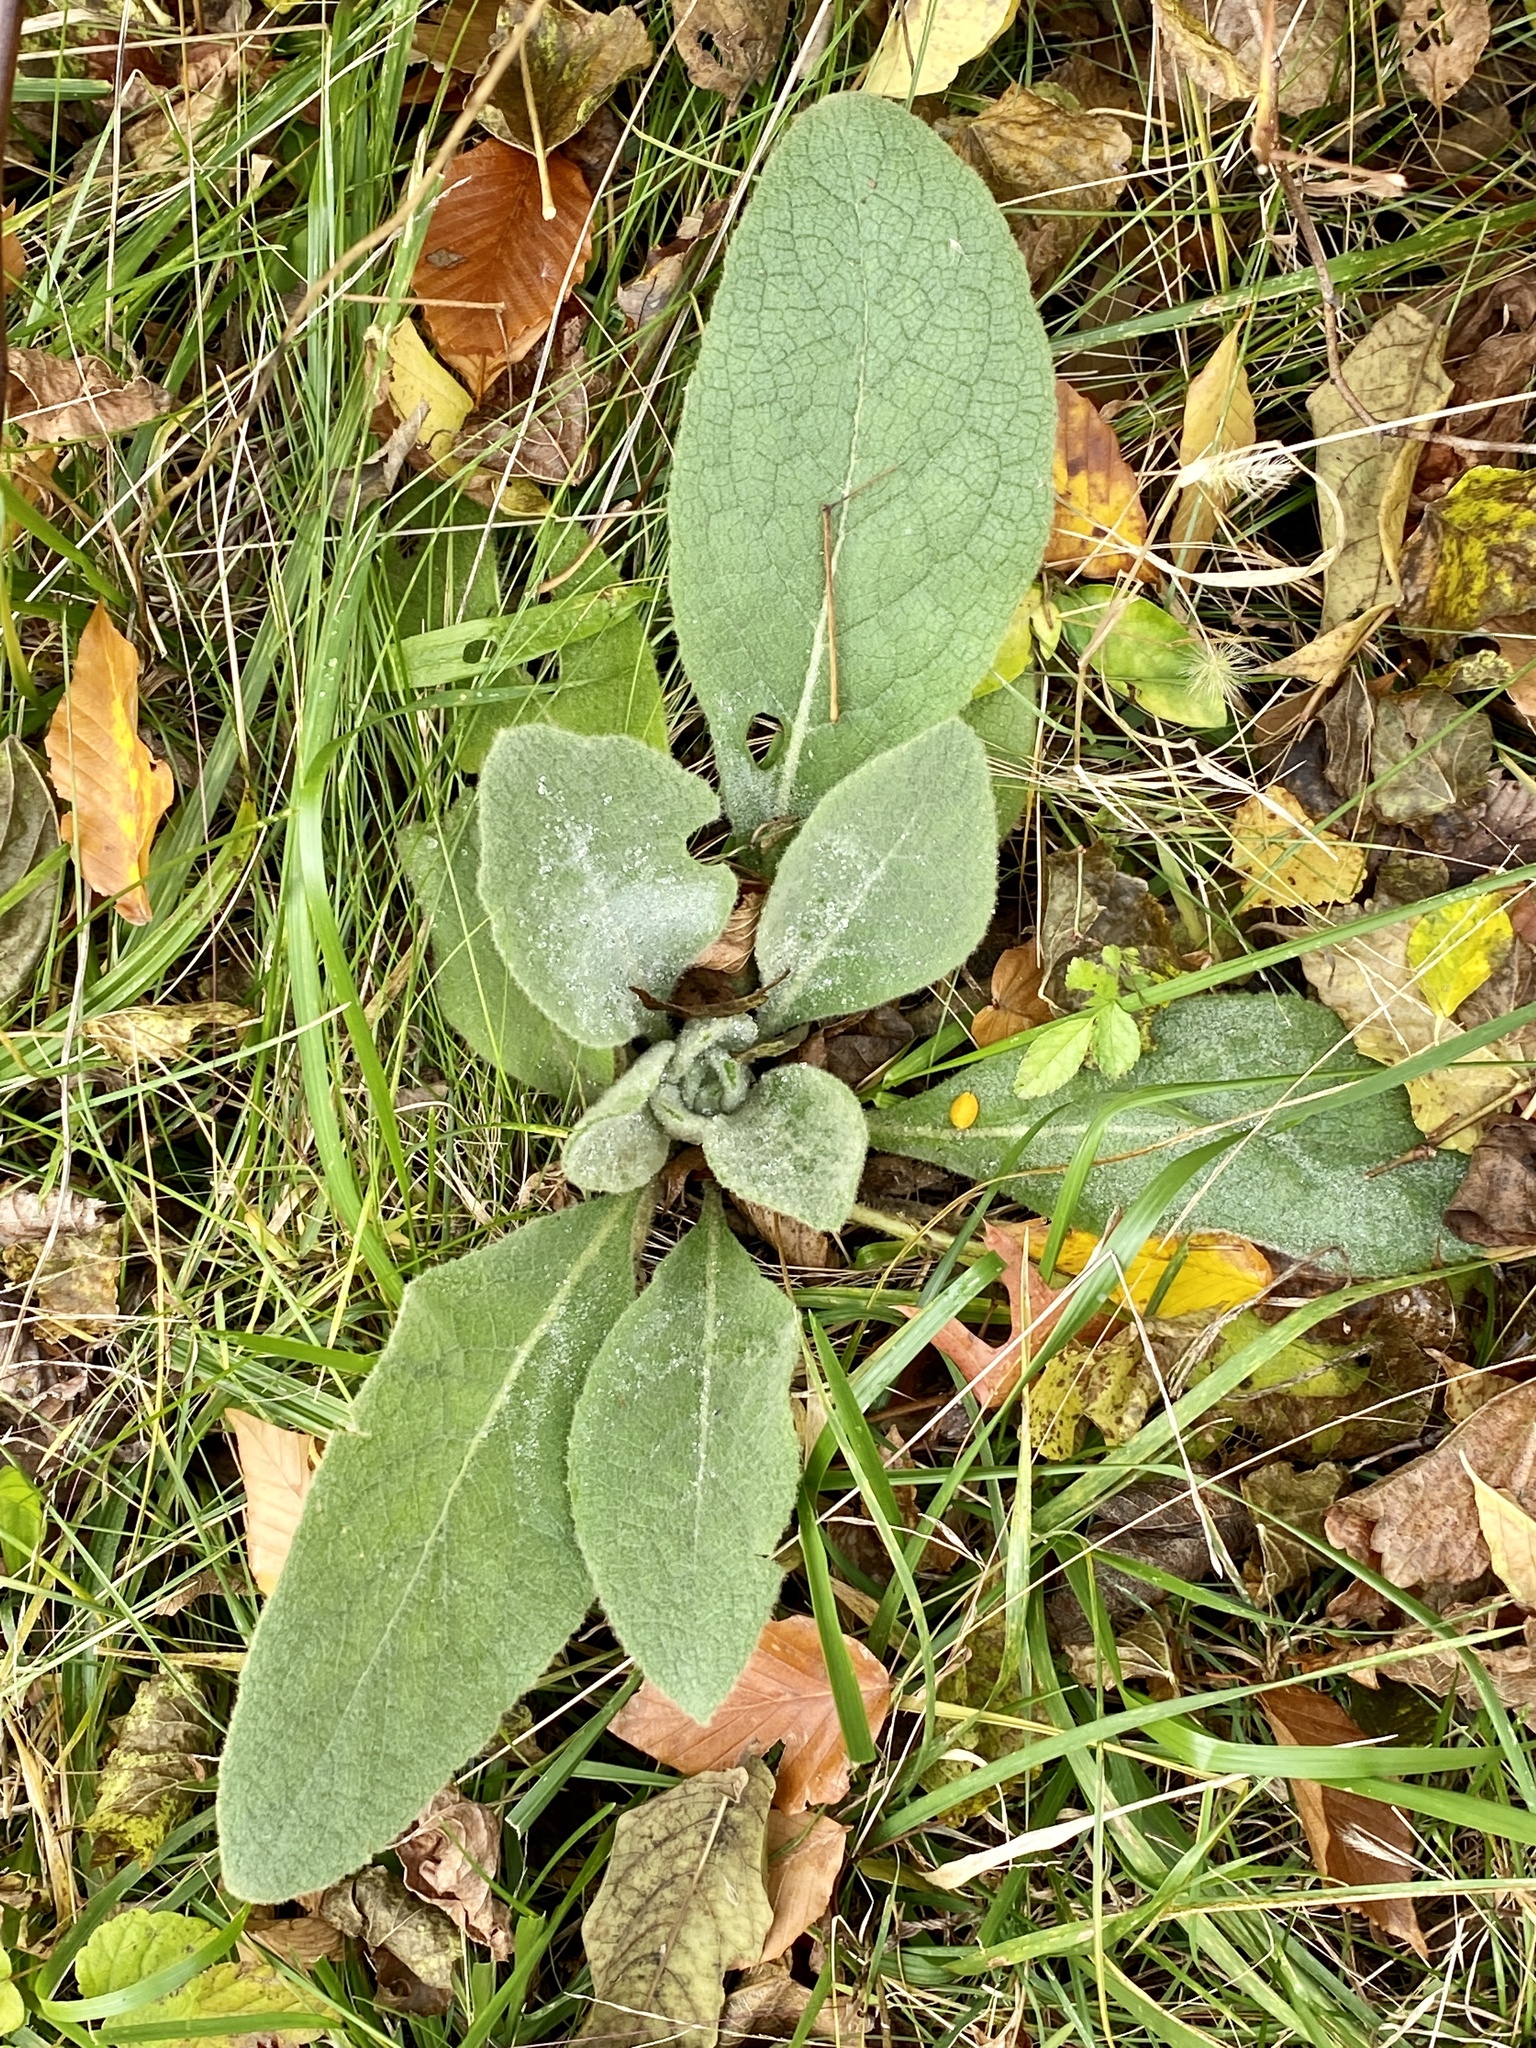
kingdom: Plantae
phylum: Tracheophyta
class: Magnoliopsida
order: Lamiales
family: Scrophulariaceae
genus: Verbascum
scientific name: Verbascum thapsus
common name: Common mullein
